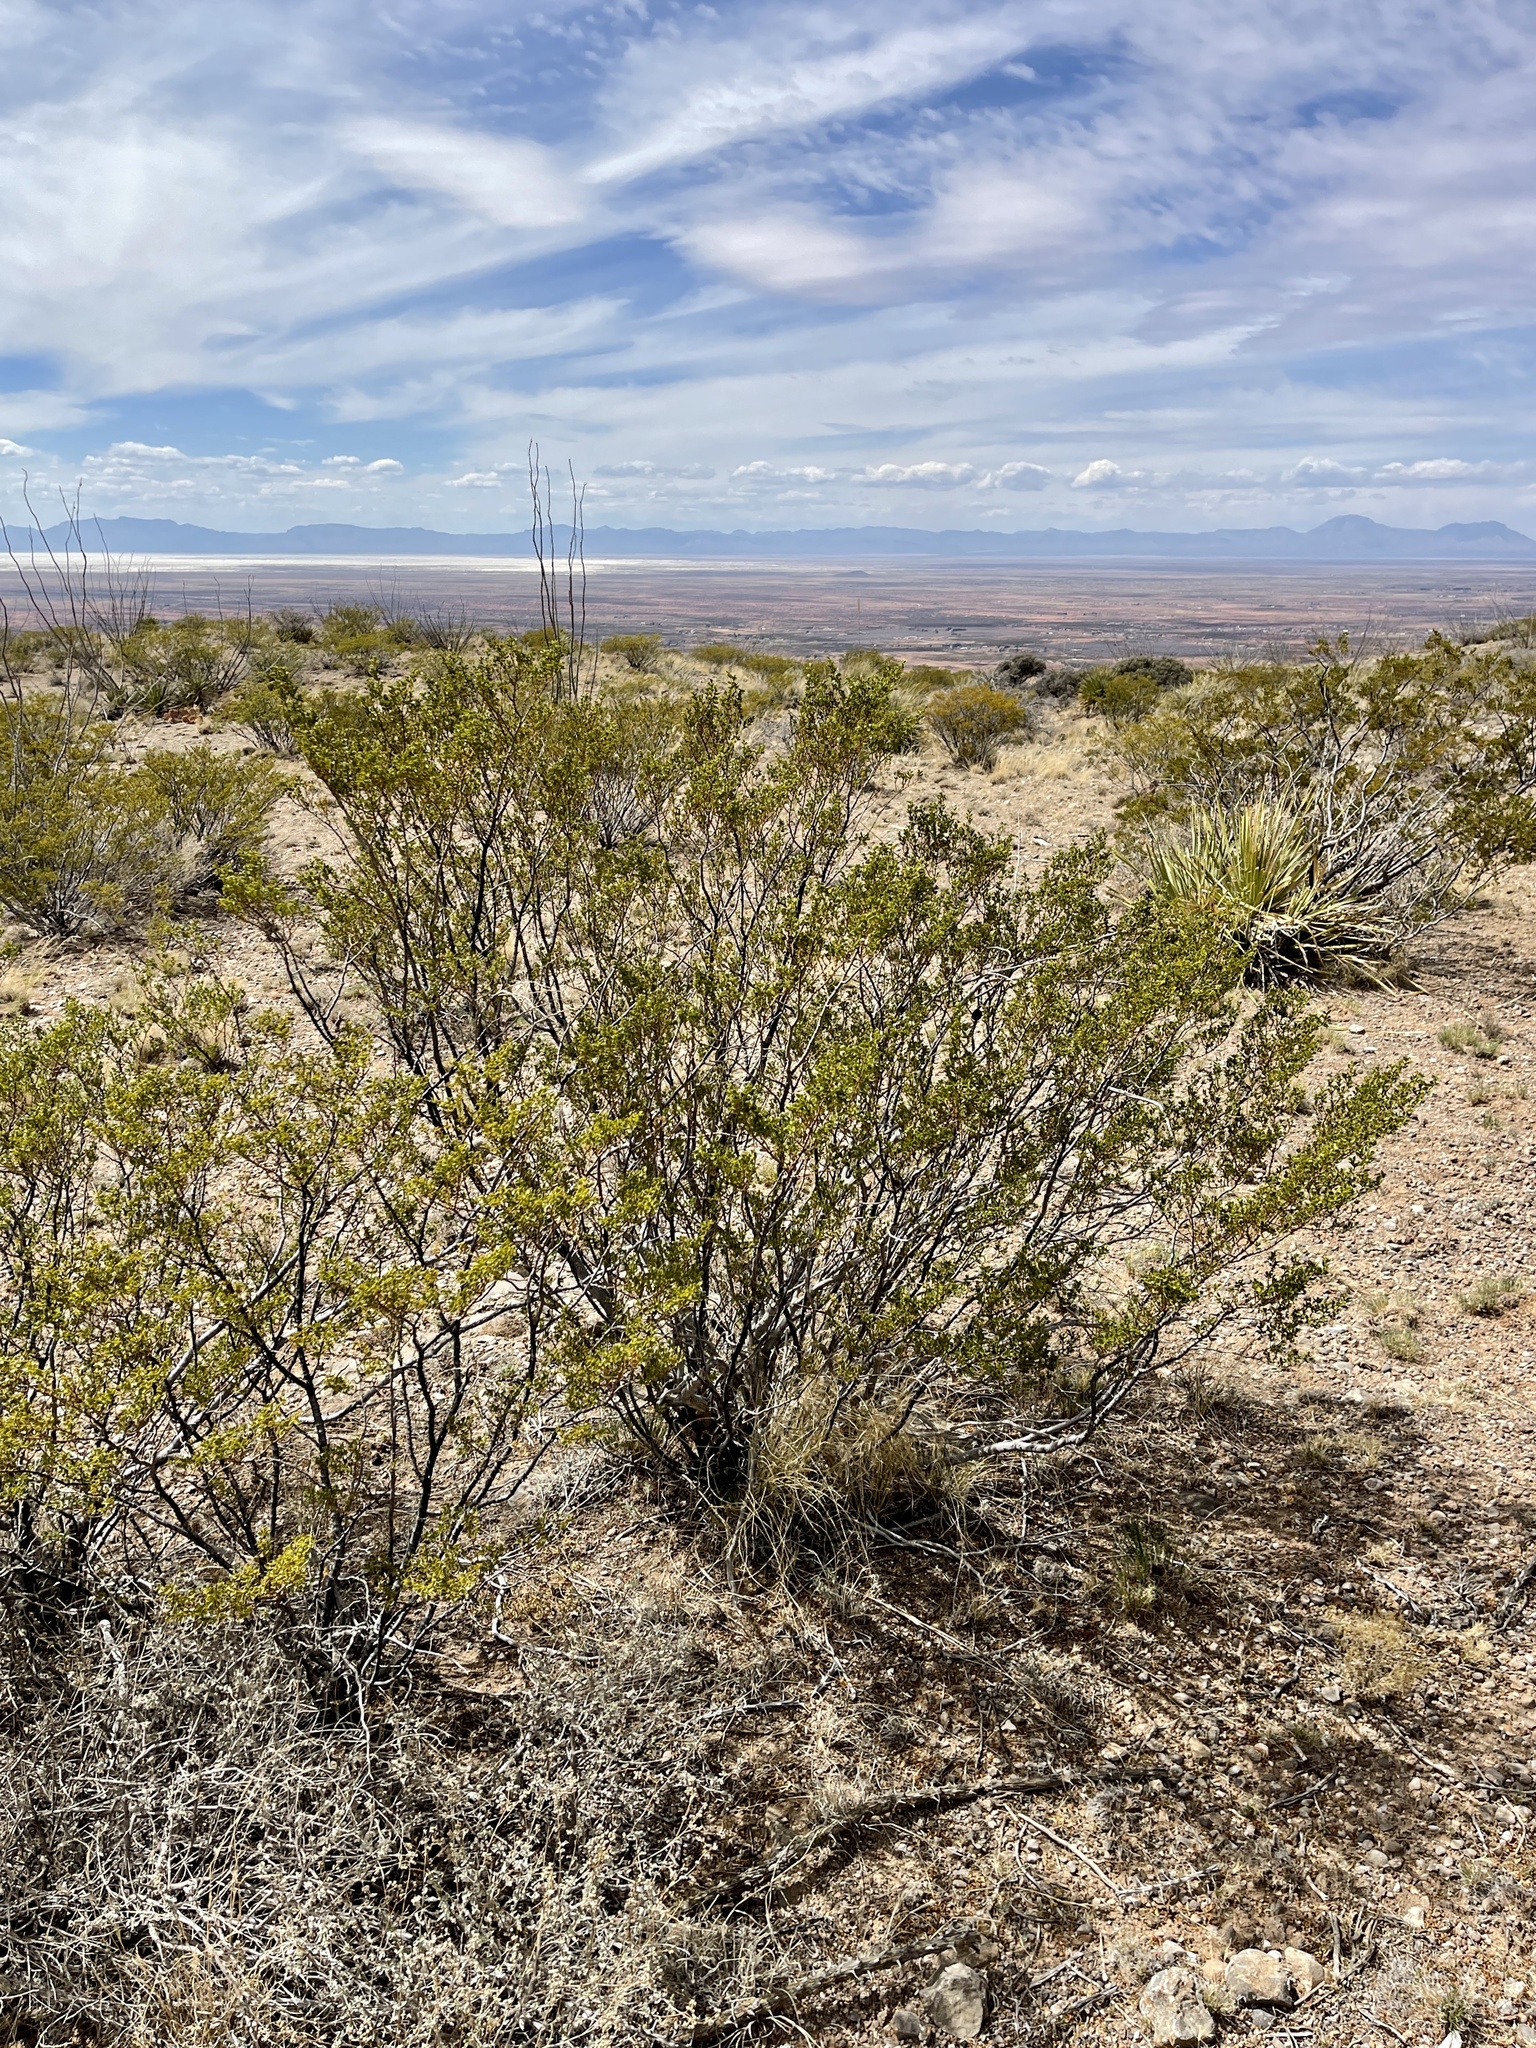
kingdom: Plantae
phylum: Tracheophyta
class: Magnoliopsida
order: Zygophyllales
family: Zygophyllaceae
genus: Larrea
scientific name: Larrea tridentata
